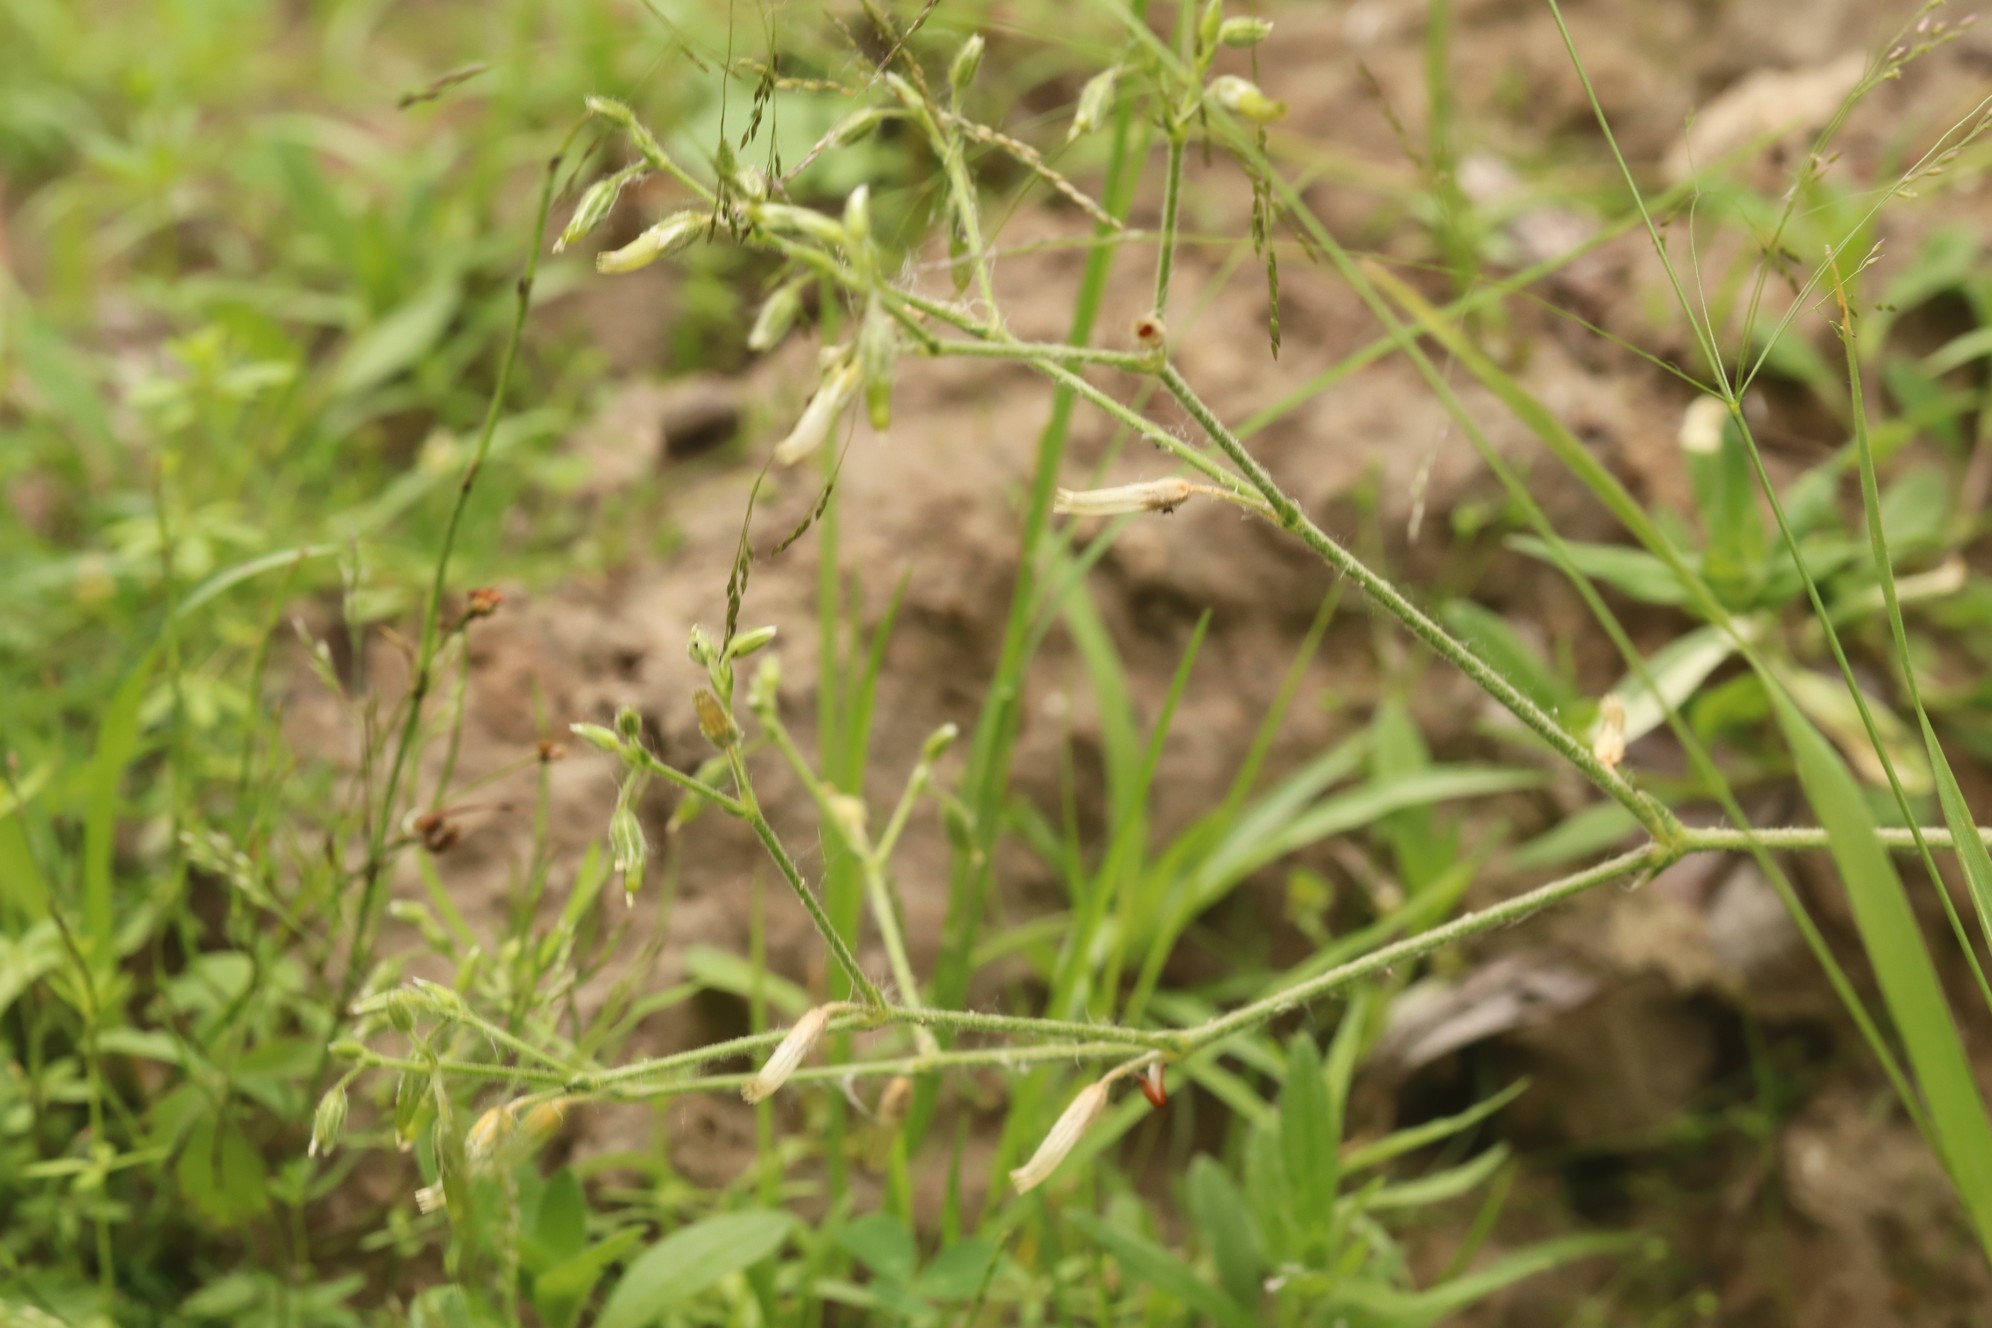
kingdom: Plantae
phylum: Tracheophyta
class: Magnoliopsida
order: Caryophyllales
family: Caryophyllaceae
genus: Cerastium
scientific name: Cerastium holosteoides
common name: Big chickweed
